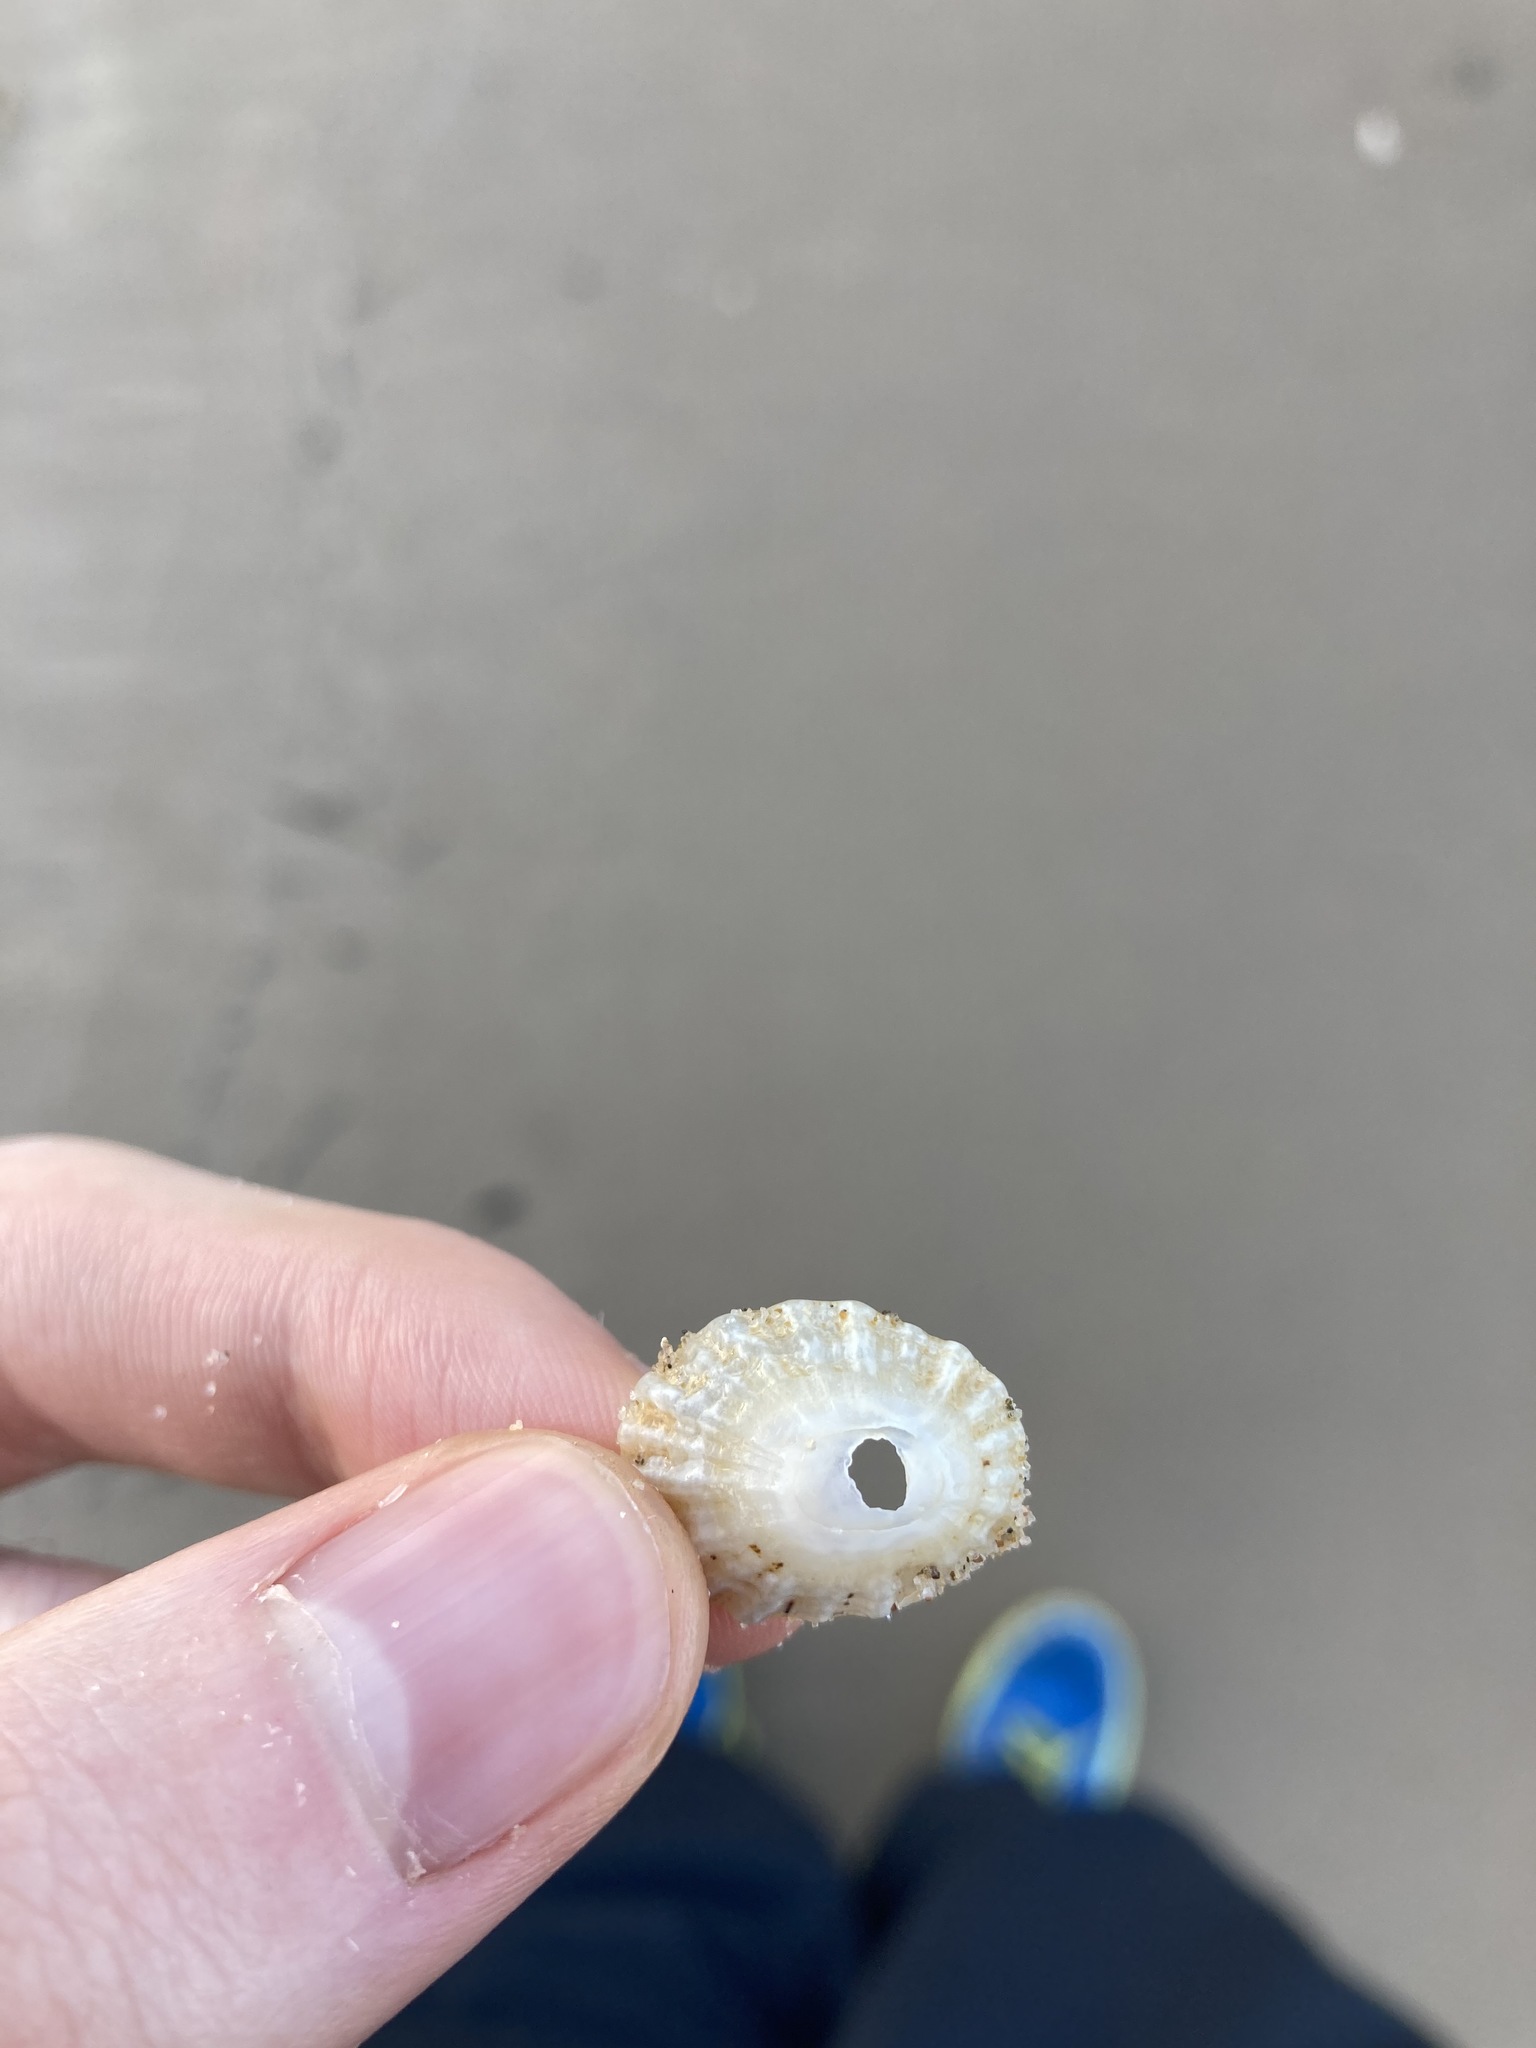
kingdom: Animalia
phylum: Mollusca
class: Gastropoda
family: Patellidae
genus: Scutellastra
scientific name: Scutellastra peronii
